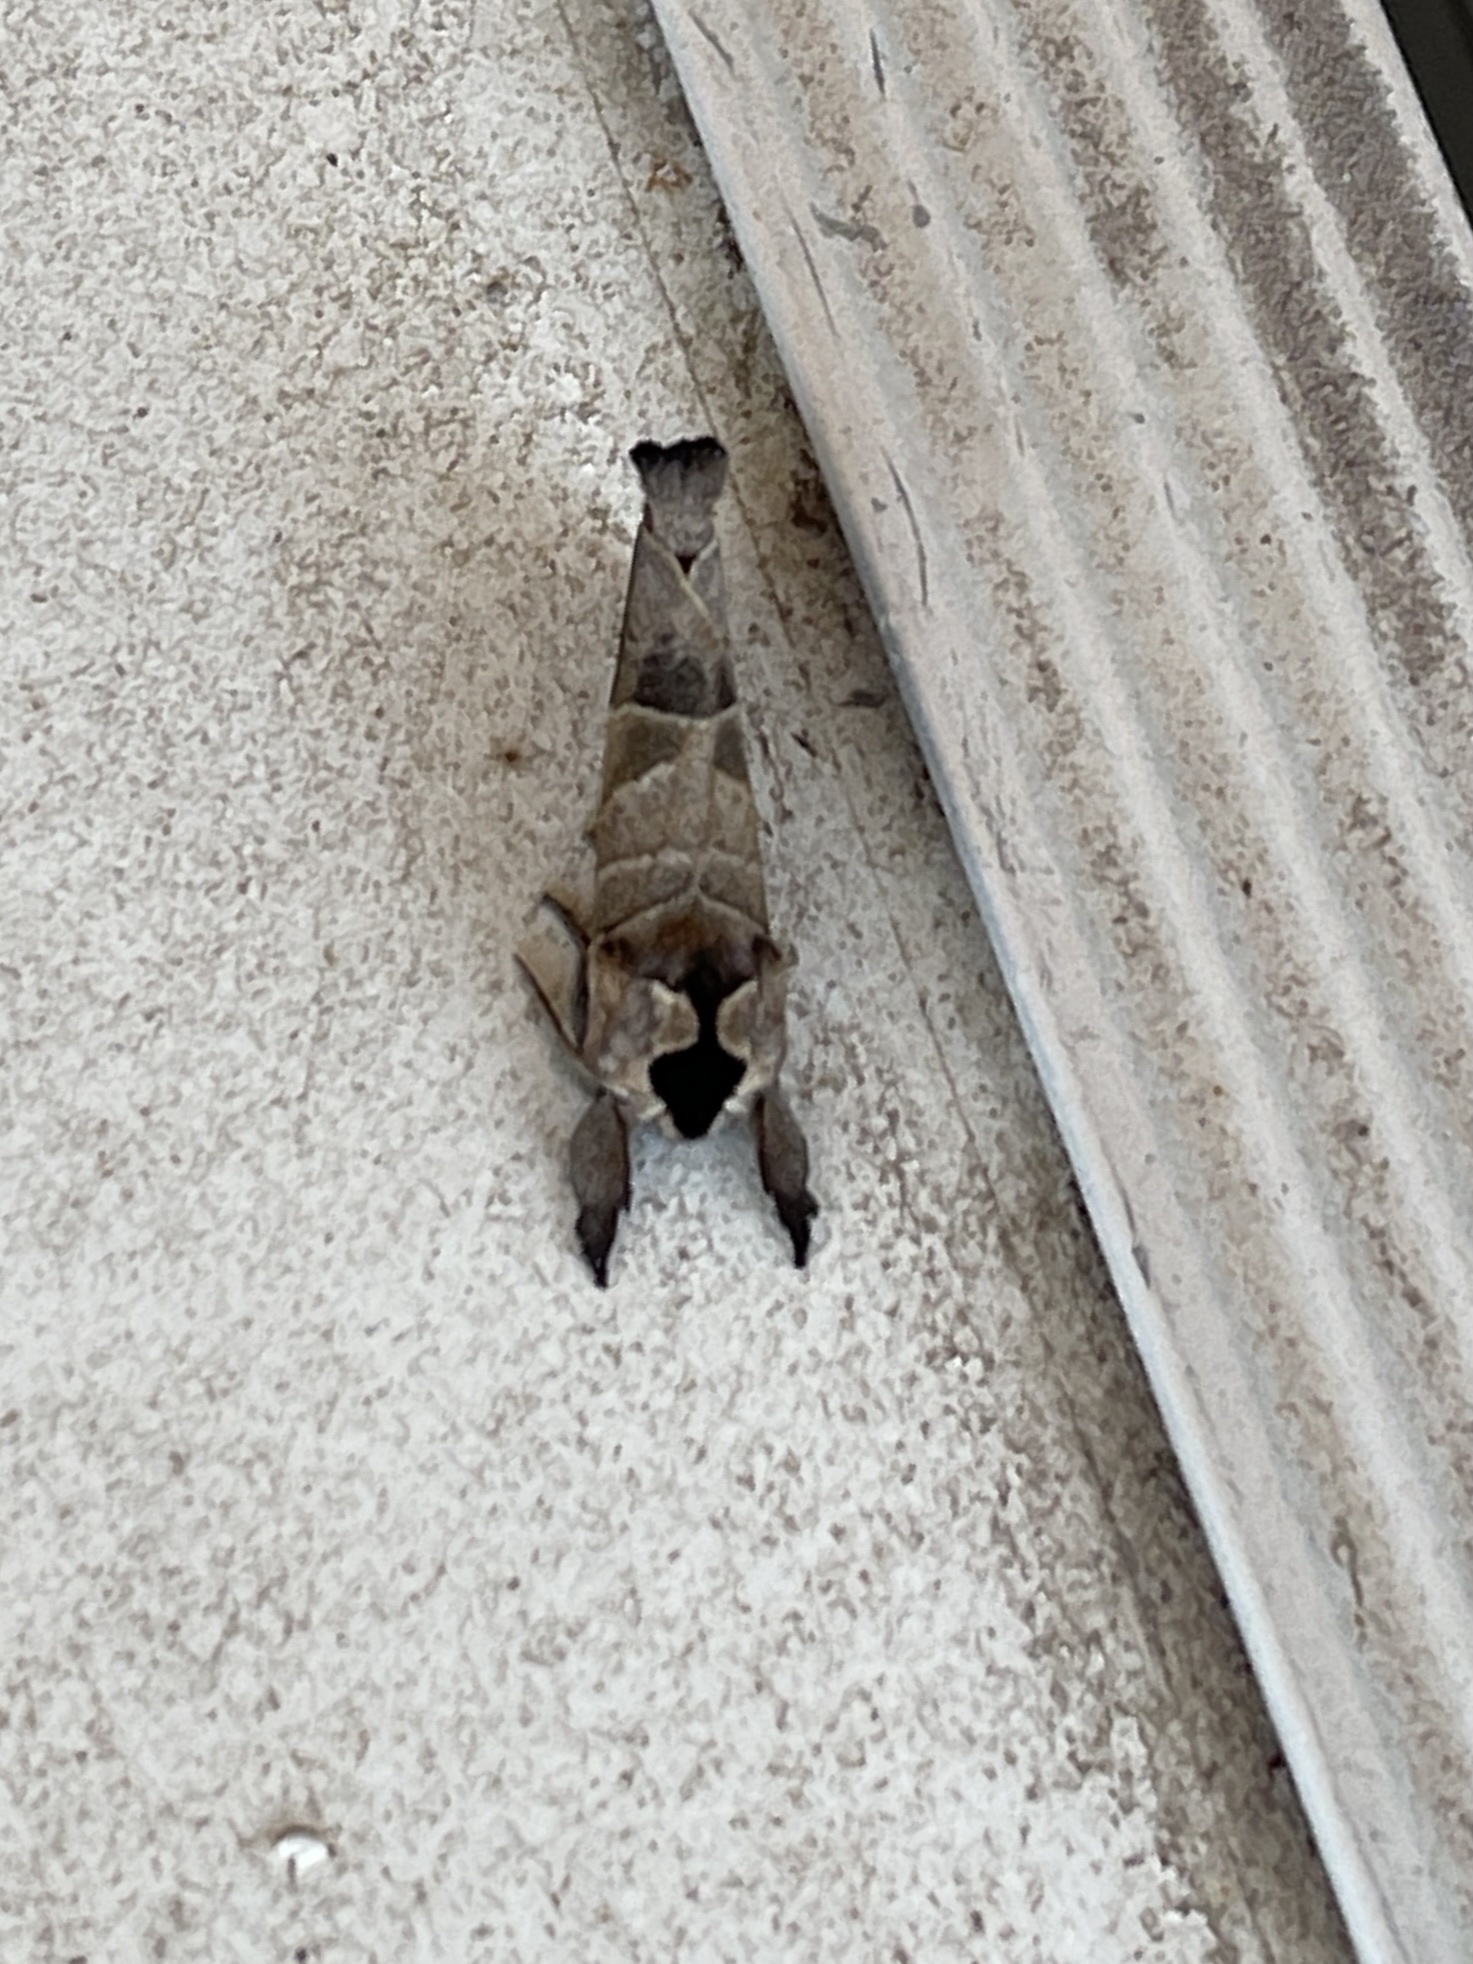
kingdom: Animalia
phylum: Arthropoda
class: Insecta
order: Lepidoptera
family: Notodontidae
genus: Clostera
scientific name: Clostera albosigma
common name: Sigmoid prominent
